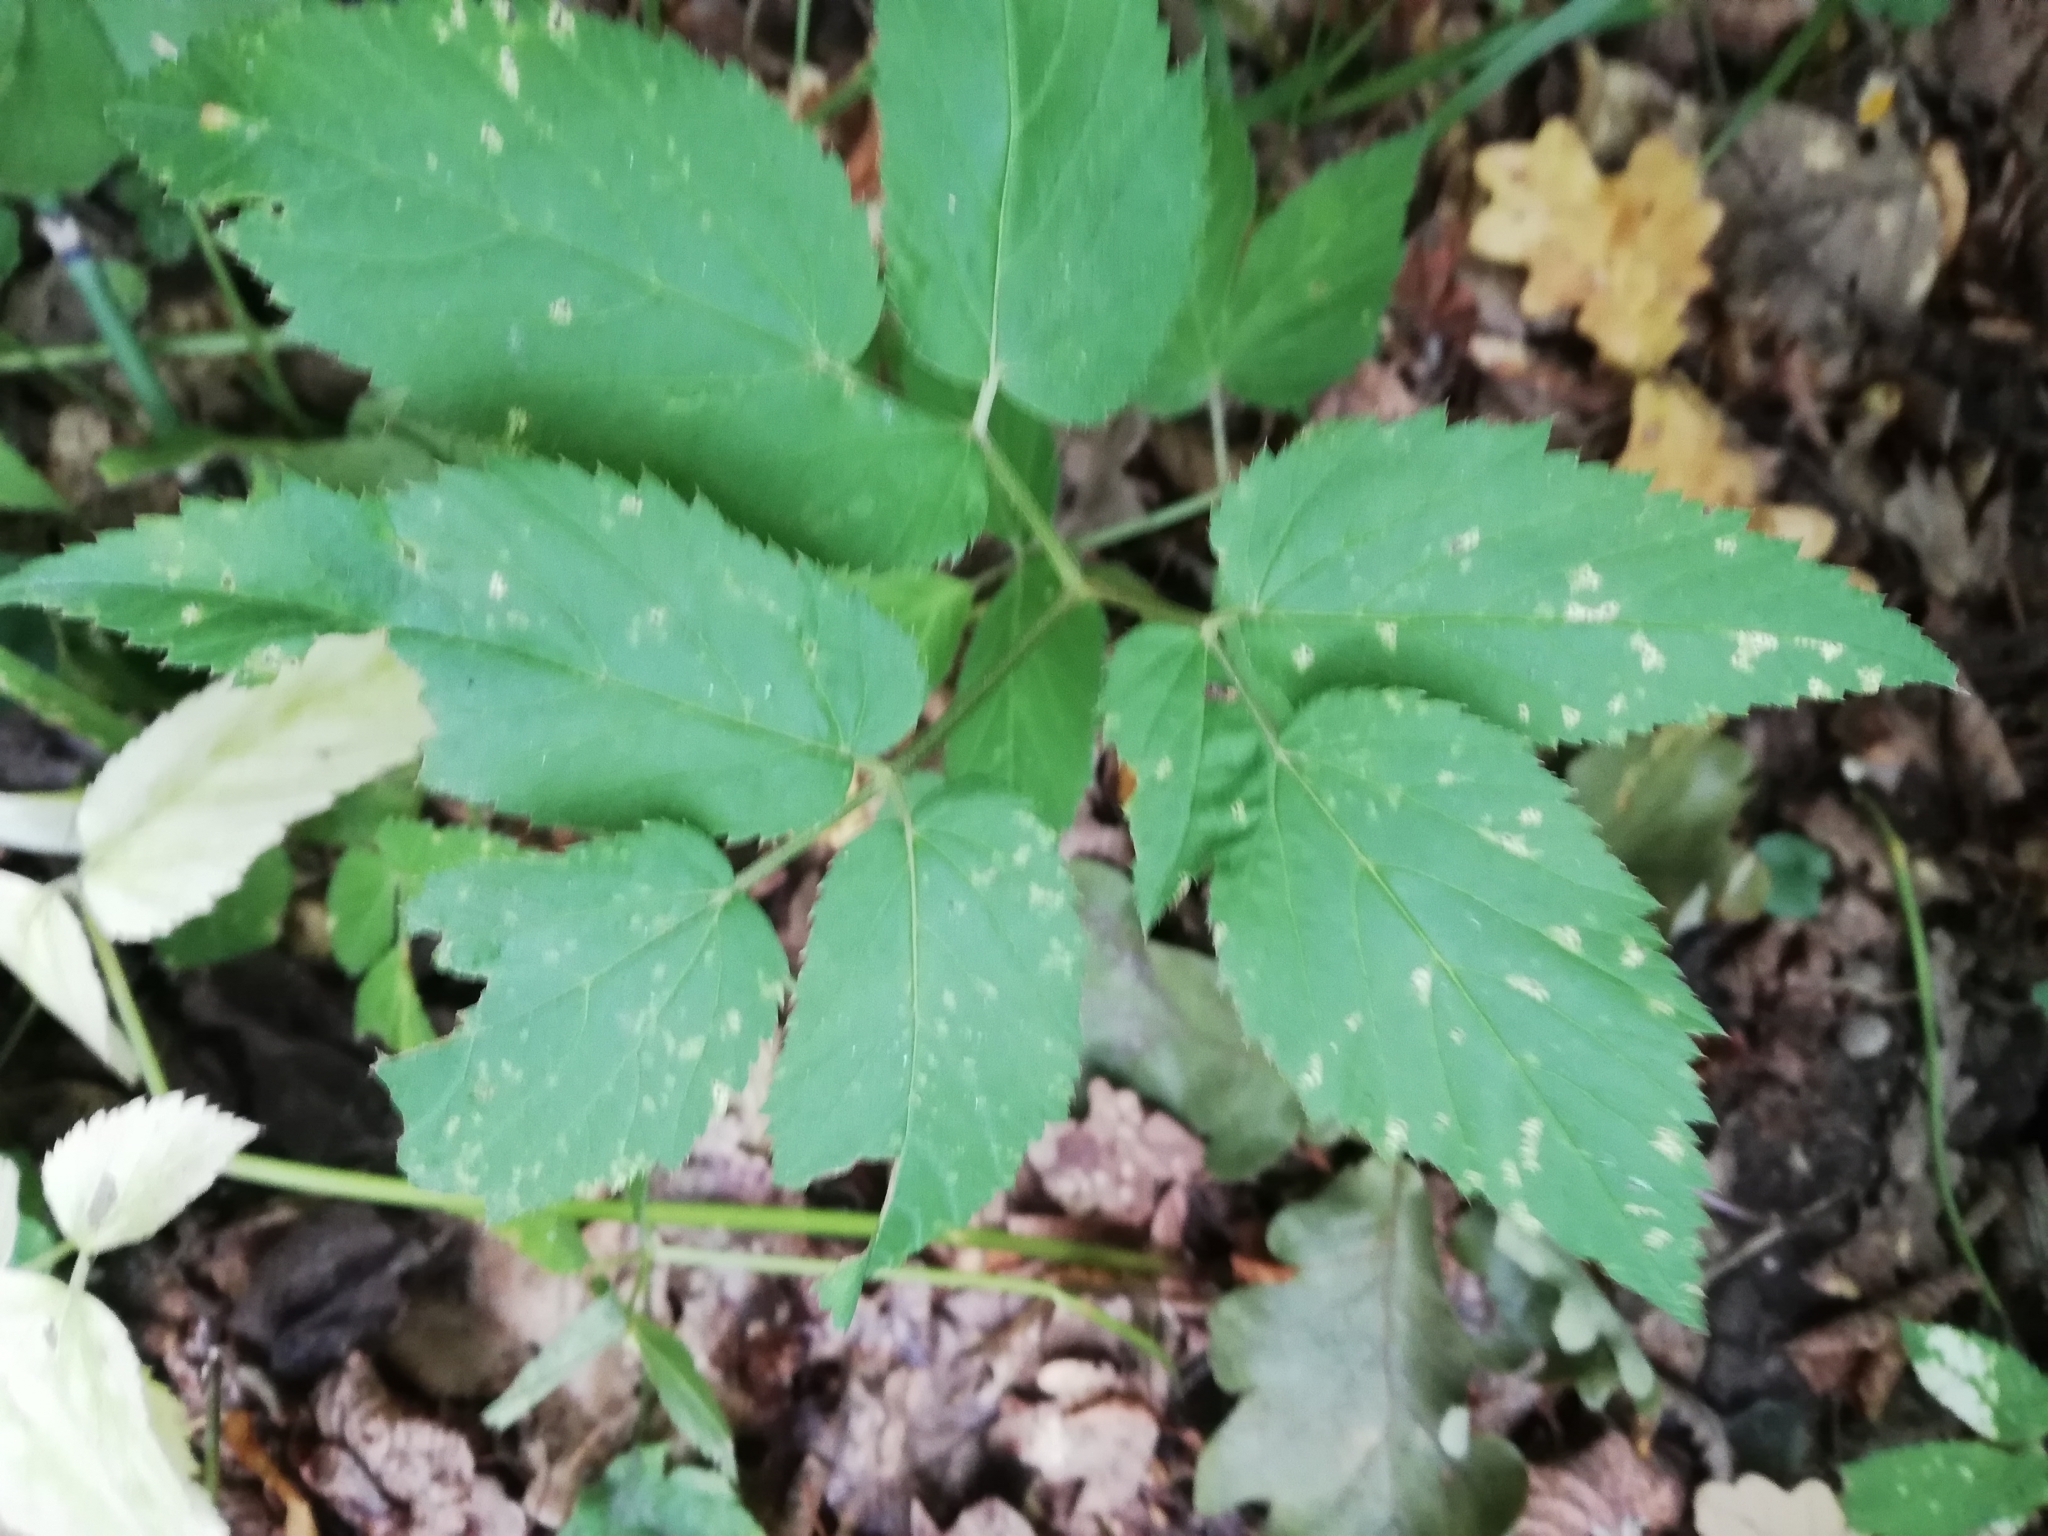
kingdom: Plantae
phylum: Tracheophyta
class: Magnoliopsida
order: Apiales
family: Apiaceae
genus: Aegopodium
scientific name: Aegopodium podagraria
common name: Ground-elder
